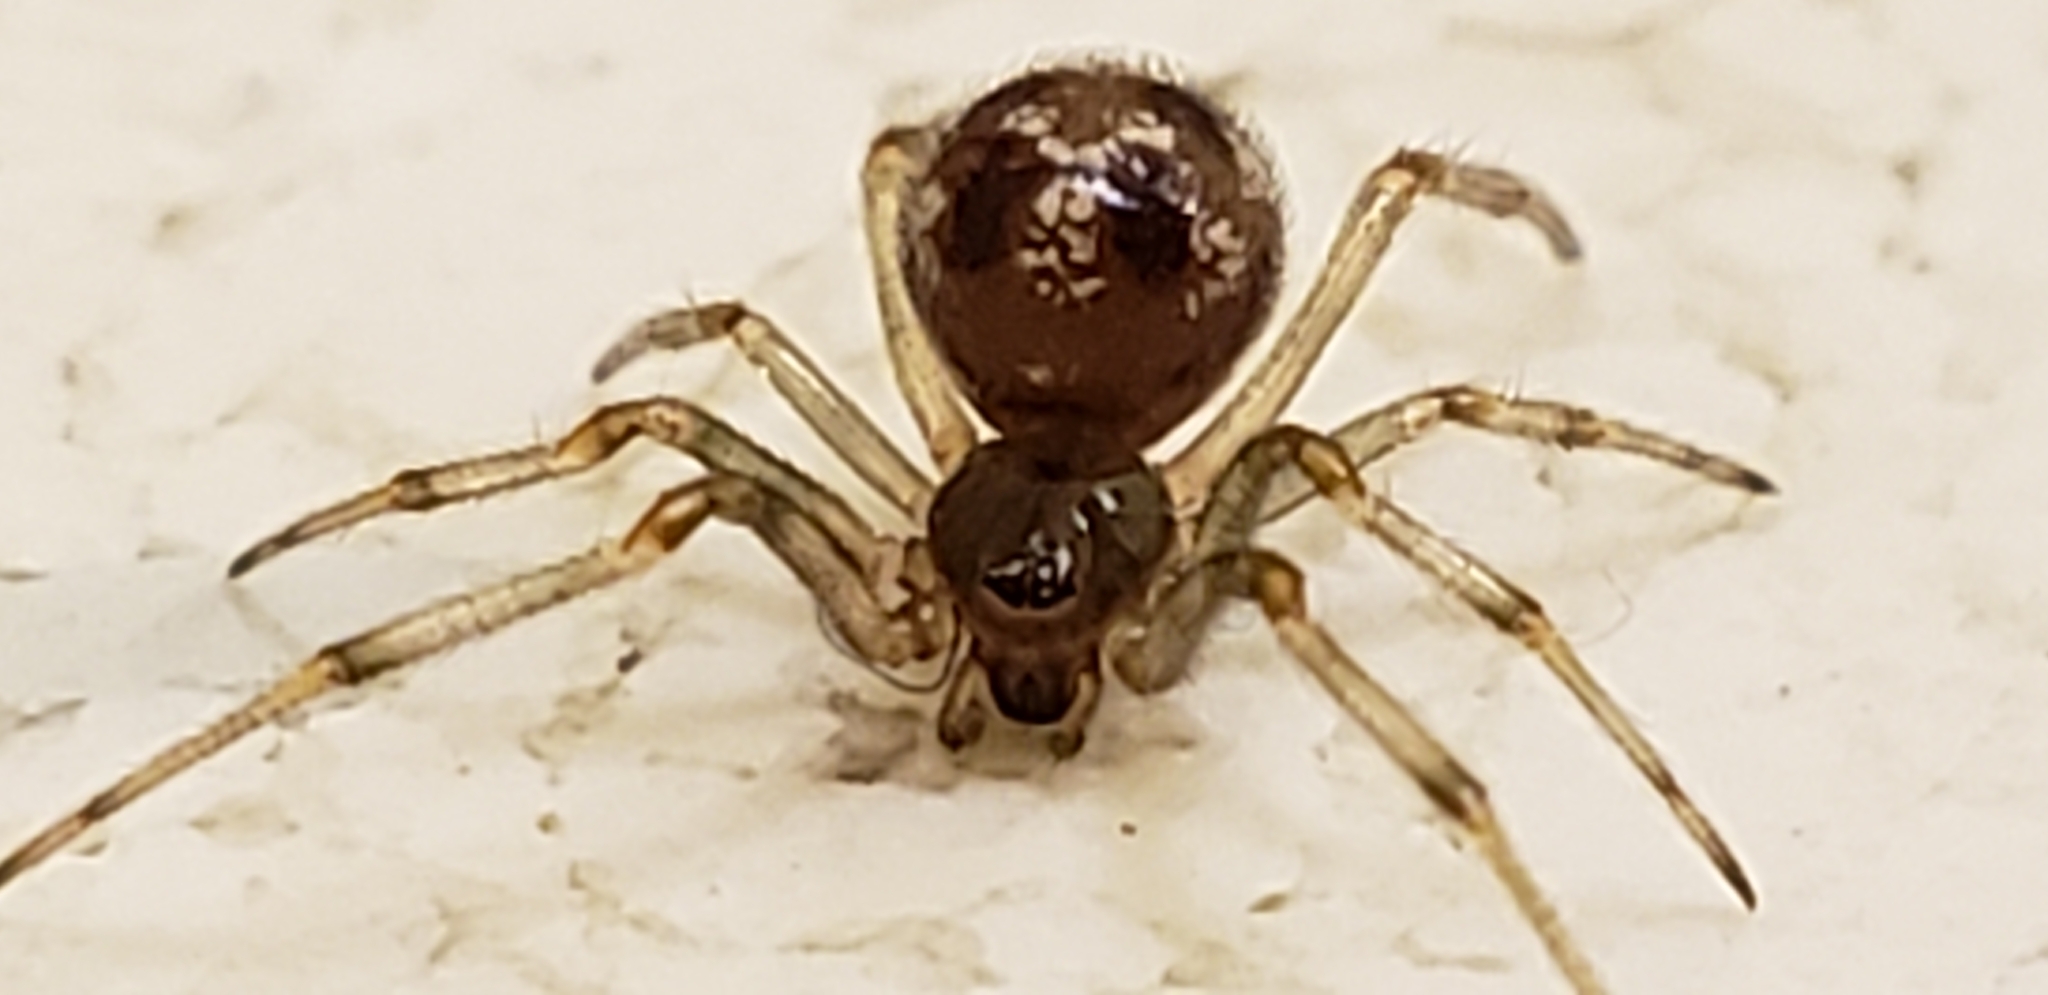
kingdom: Animalia
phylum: Arthropoda
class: Arachnida
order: Araneae
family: Theridiidae
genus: Parasteatoda
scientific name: Parasteatoda tepidariorum
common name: Common house spider
